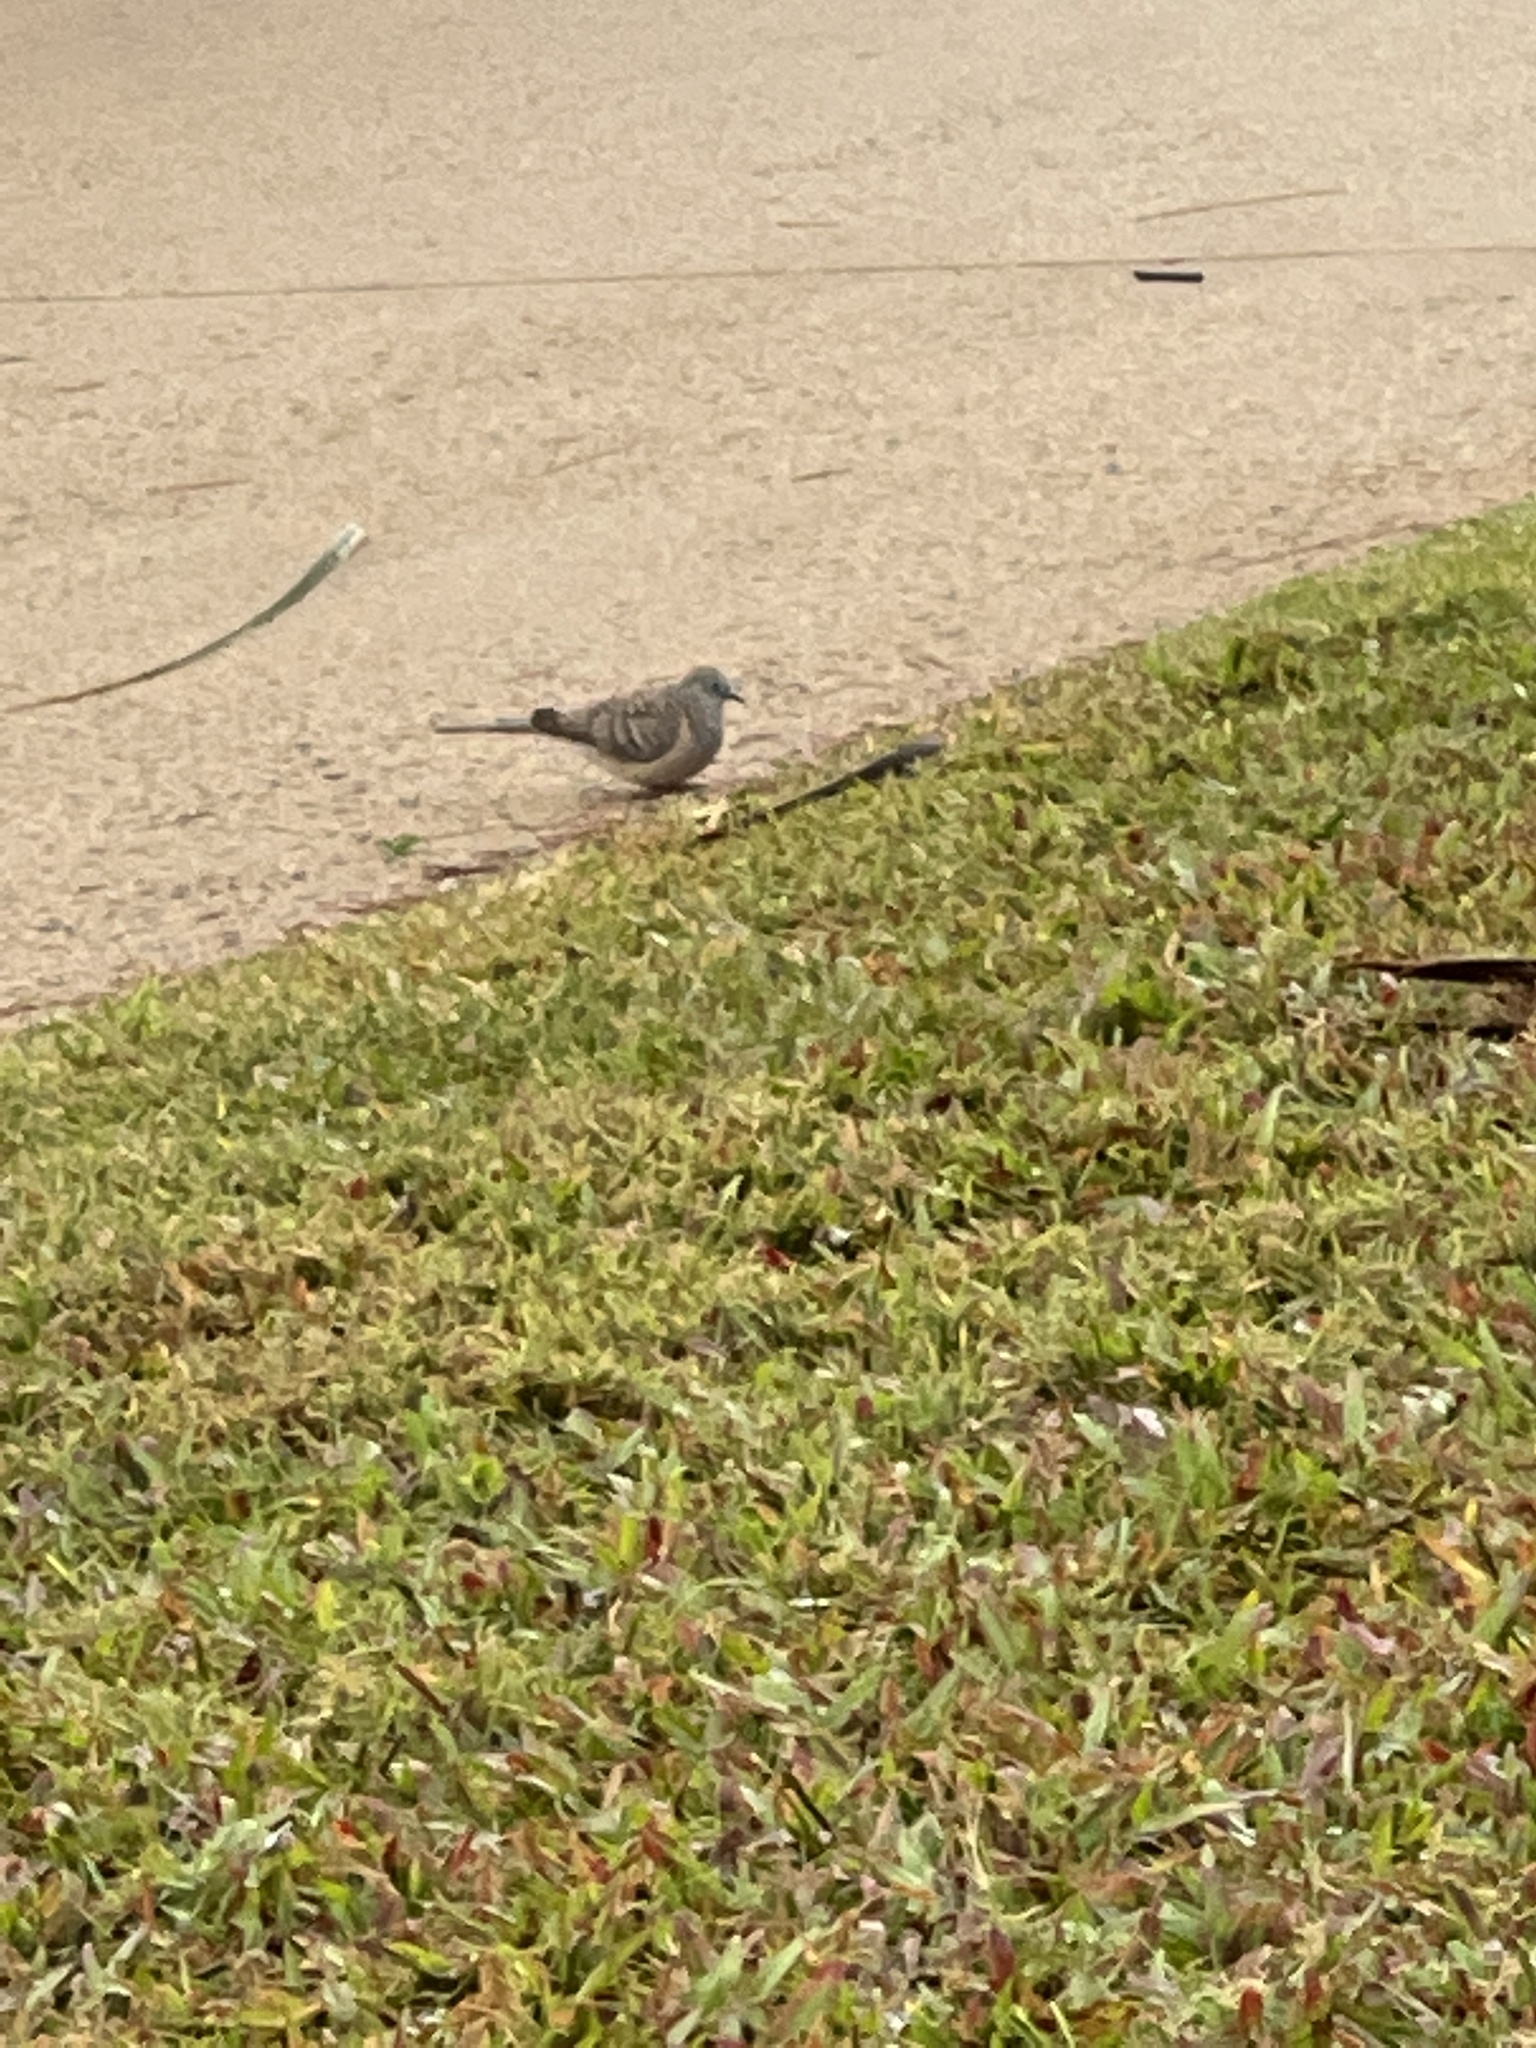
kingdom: Animalia
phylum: Chordata
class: Aves
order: Columbiformes
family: Columbidae
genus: Geopelia
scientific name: Geopelia placida
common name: Peaceful dove
